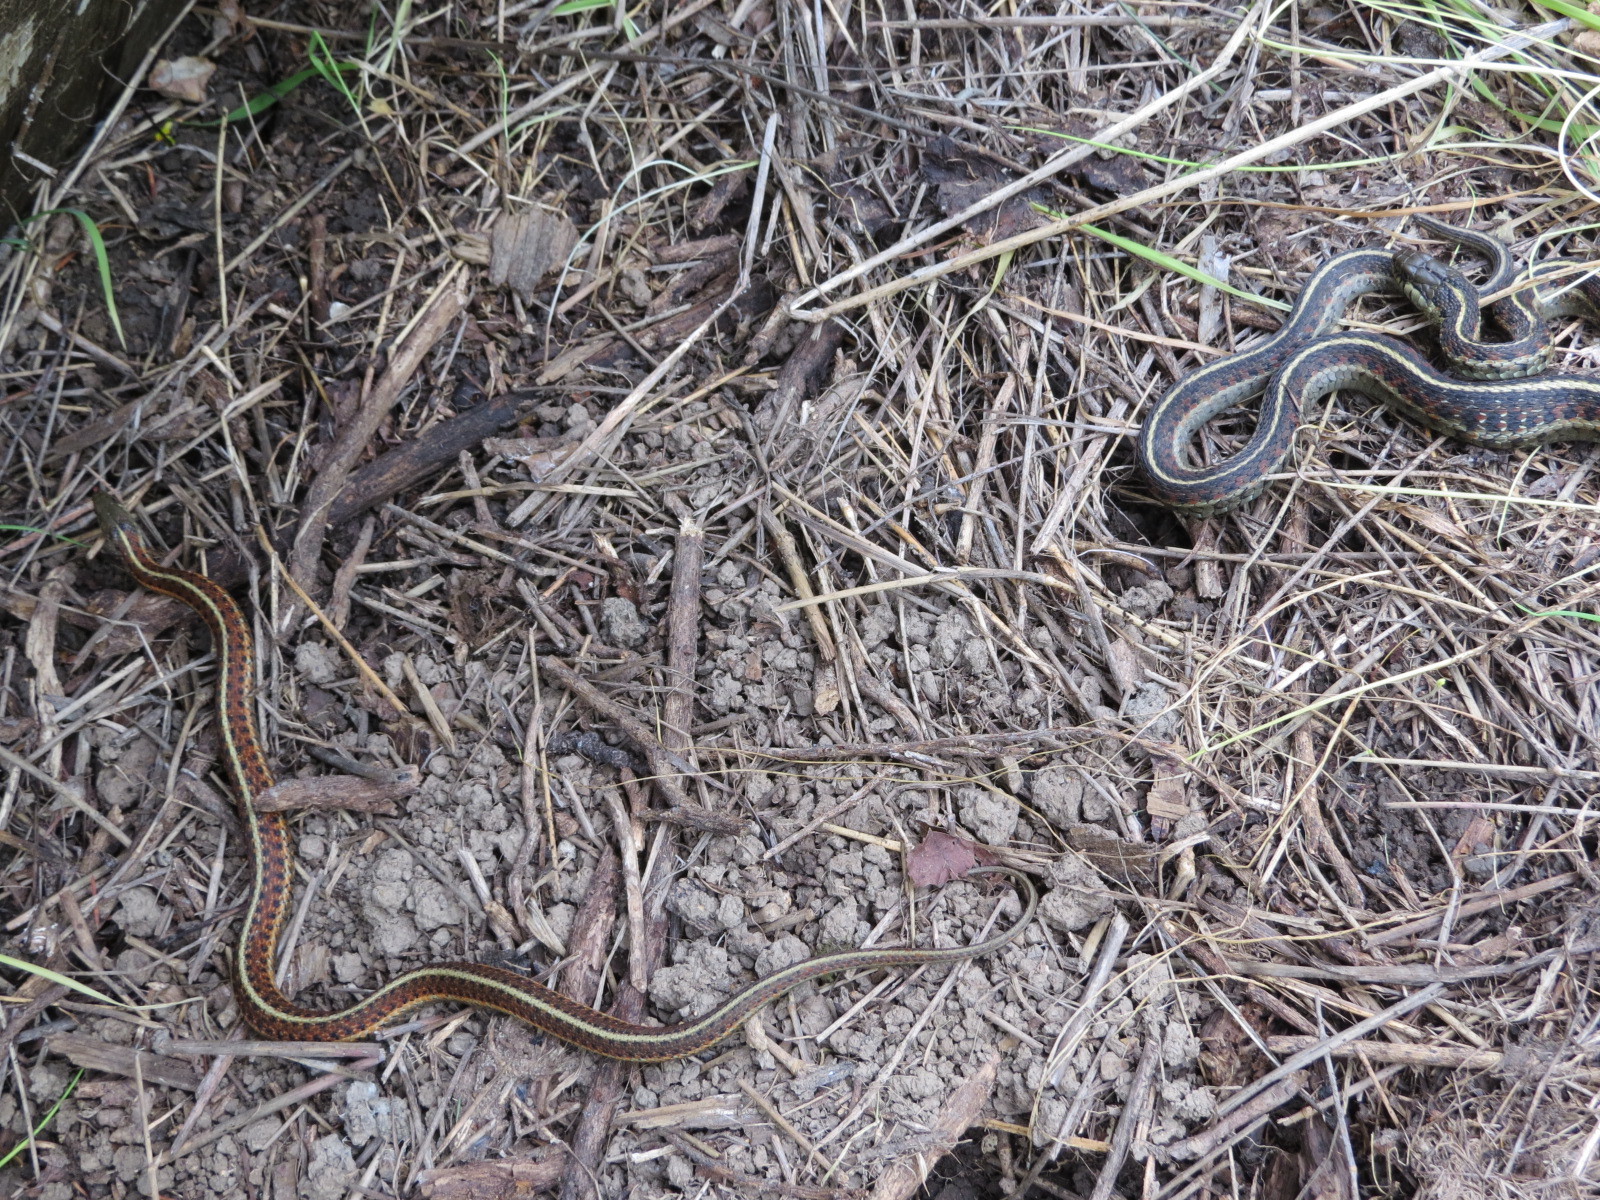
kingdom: Animalia
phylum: Chordata
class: Squamata
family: Colubridae
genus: Thamnophis
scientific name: Thamnophis elegans
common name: Western terrestrial garter snake
